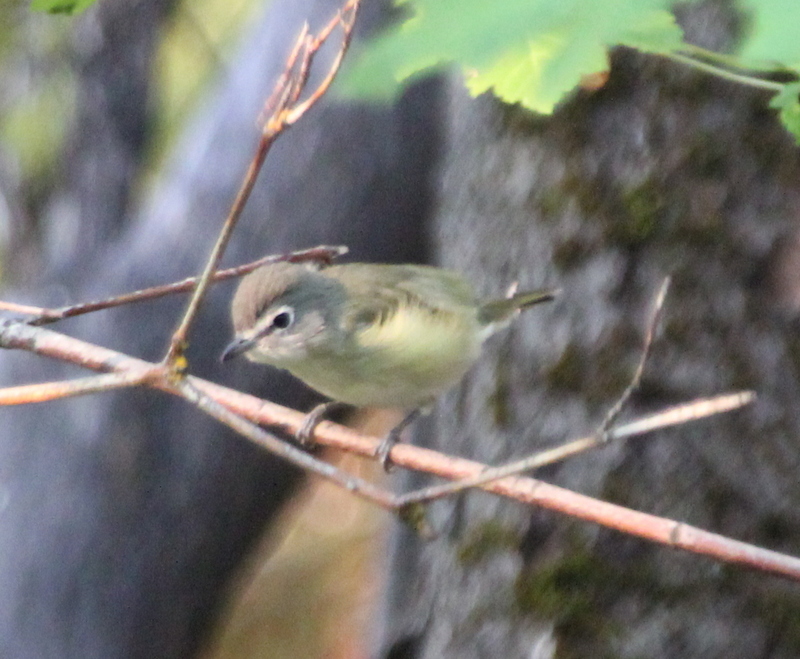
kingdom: Animalia
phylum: Chordata
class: Aves
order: Passeriformes
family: Vireonidae
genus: Vireo
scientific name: Vireo cassinii
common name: Cassin's vireo
